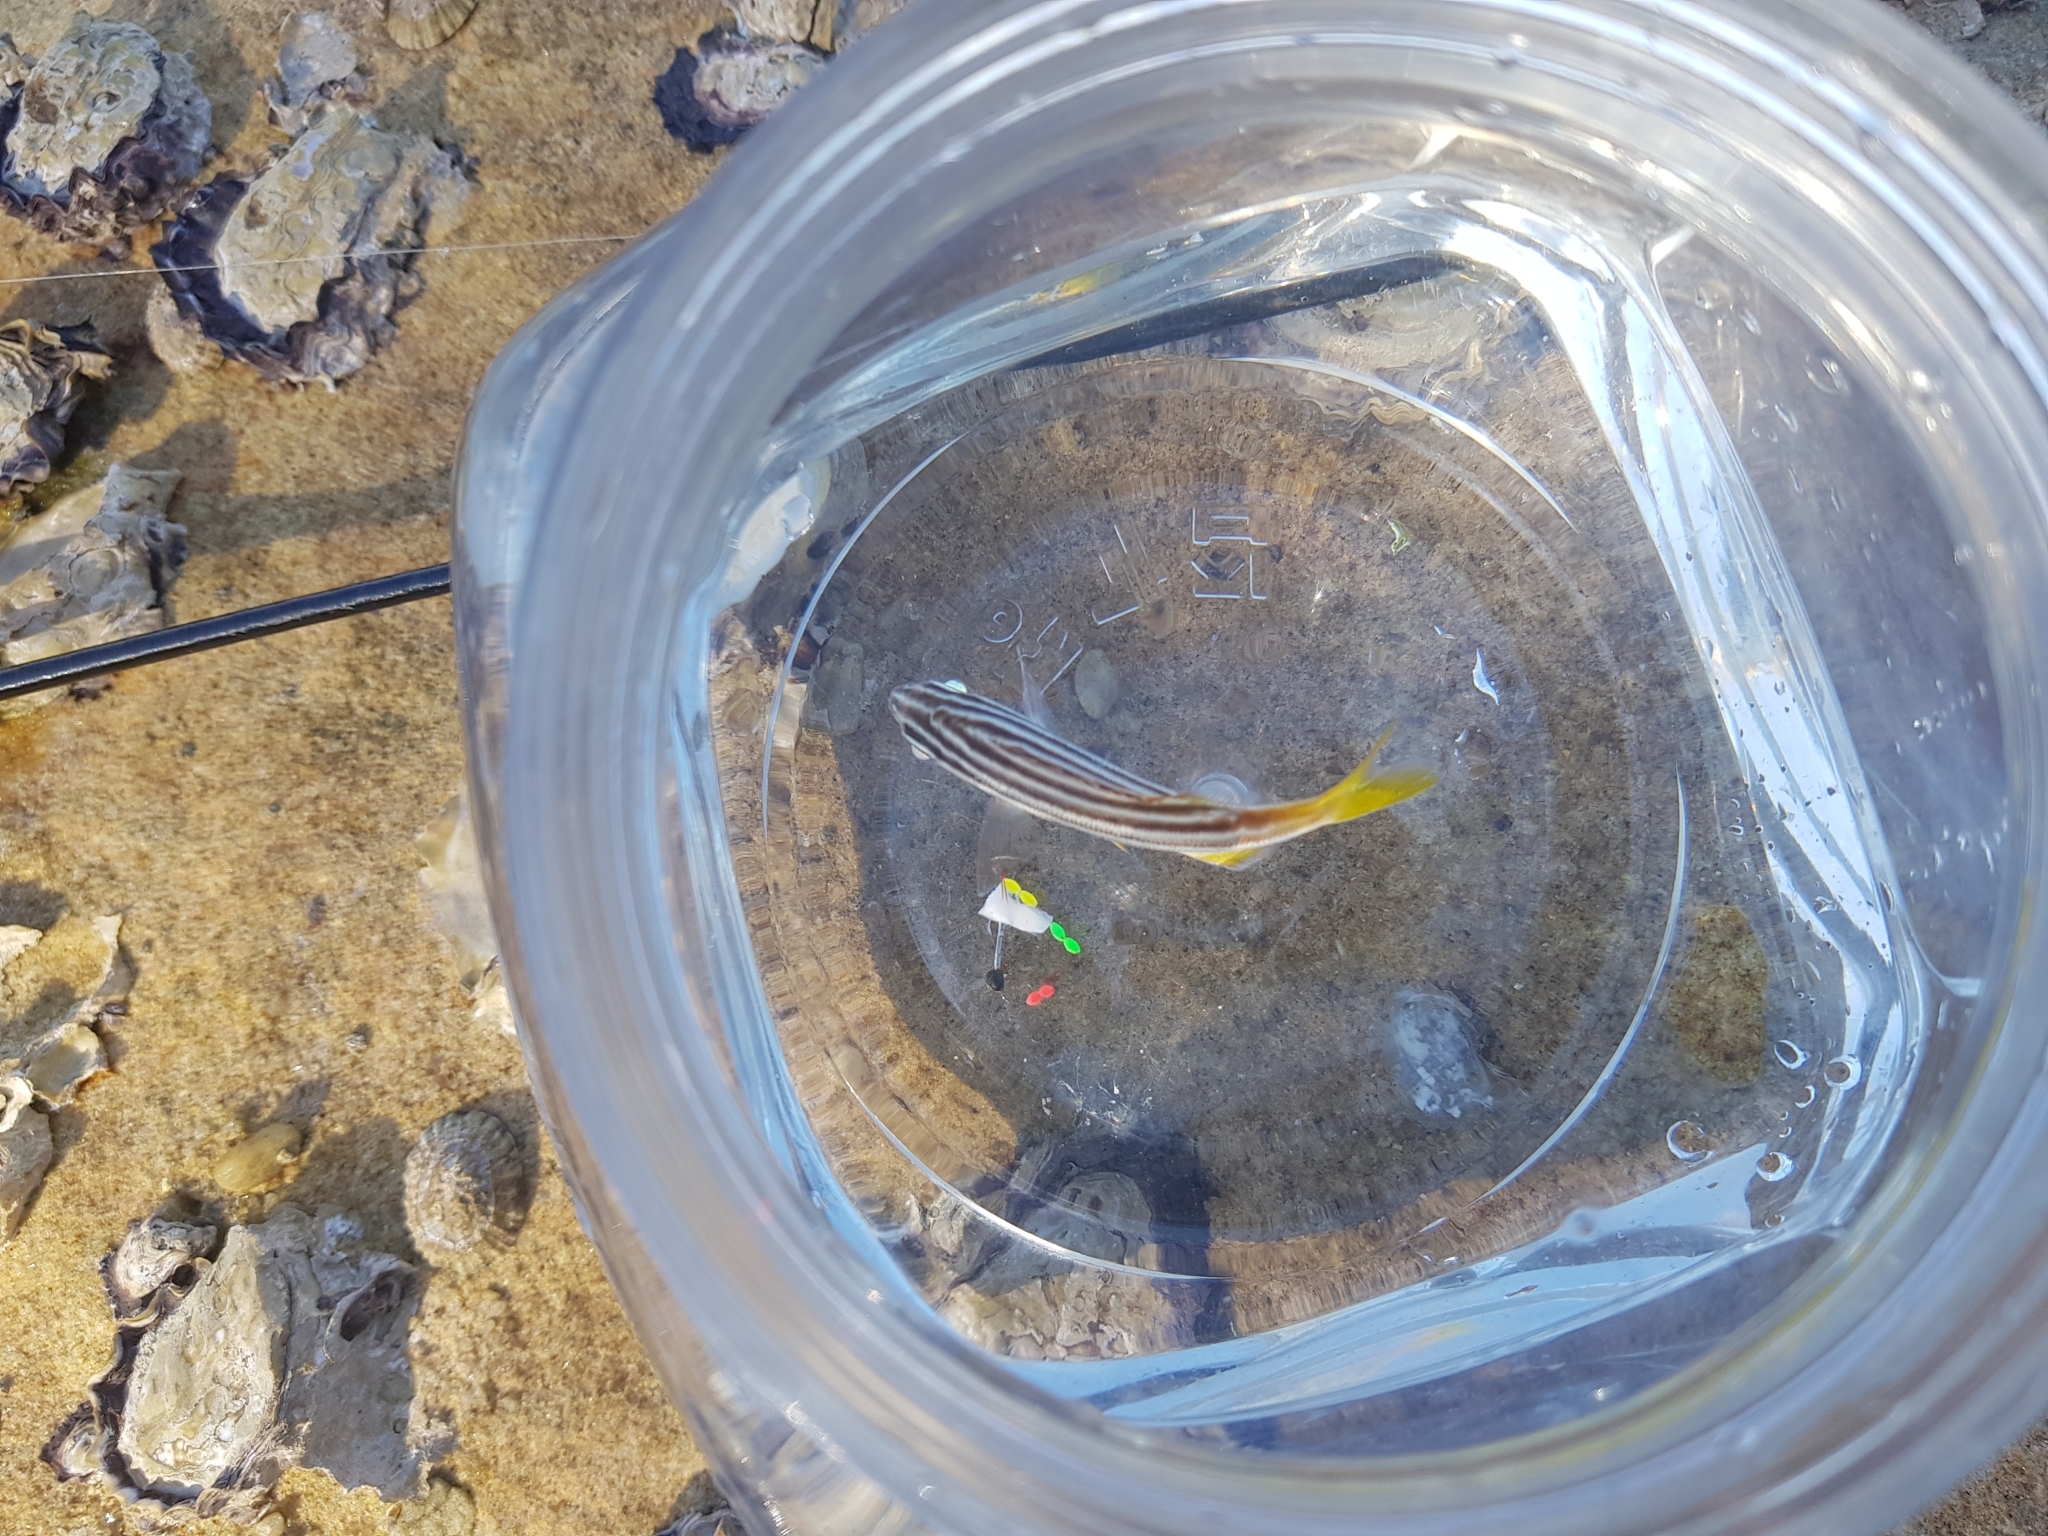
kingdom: Animalia
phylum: Chordata
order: Perciformes
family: Kyphosidae
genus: Atypichthys
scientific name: Atypichthys strigatus
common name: Australian mado
